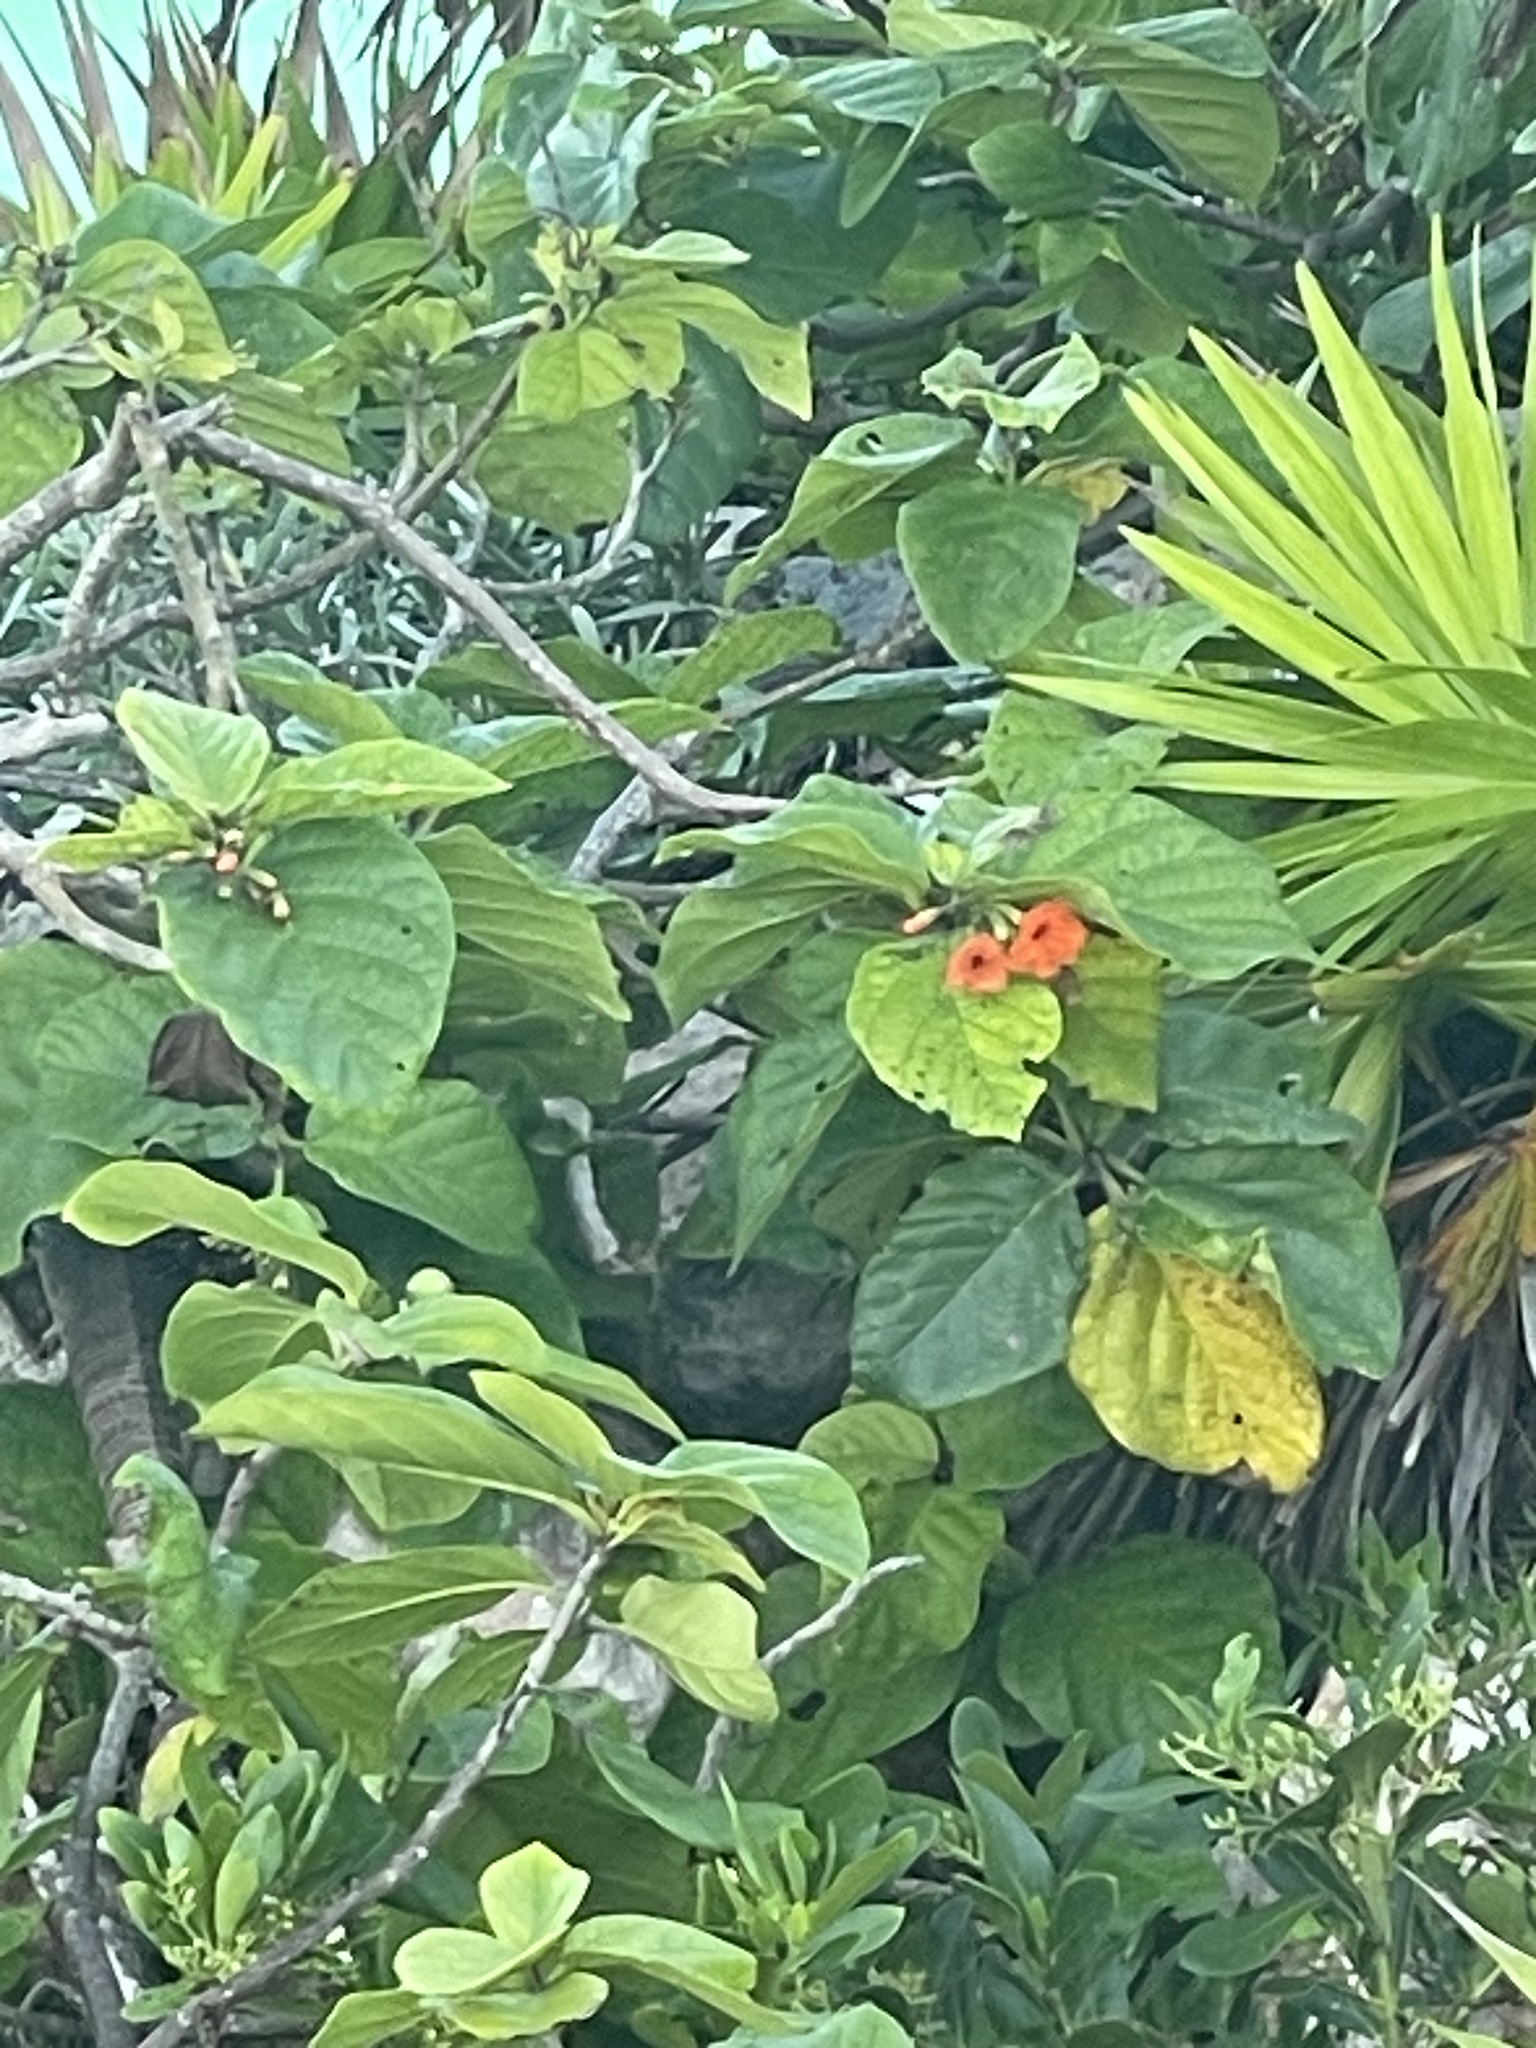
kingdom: Plantae
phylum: Tracheophyta
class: Magnoliopsida
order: Boraginales
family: Cordiaceae
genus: Cordia
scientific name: Cordia sebestena
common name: Largeleaf geigertree
